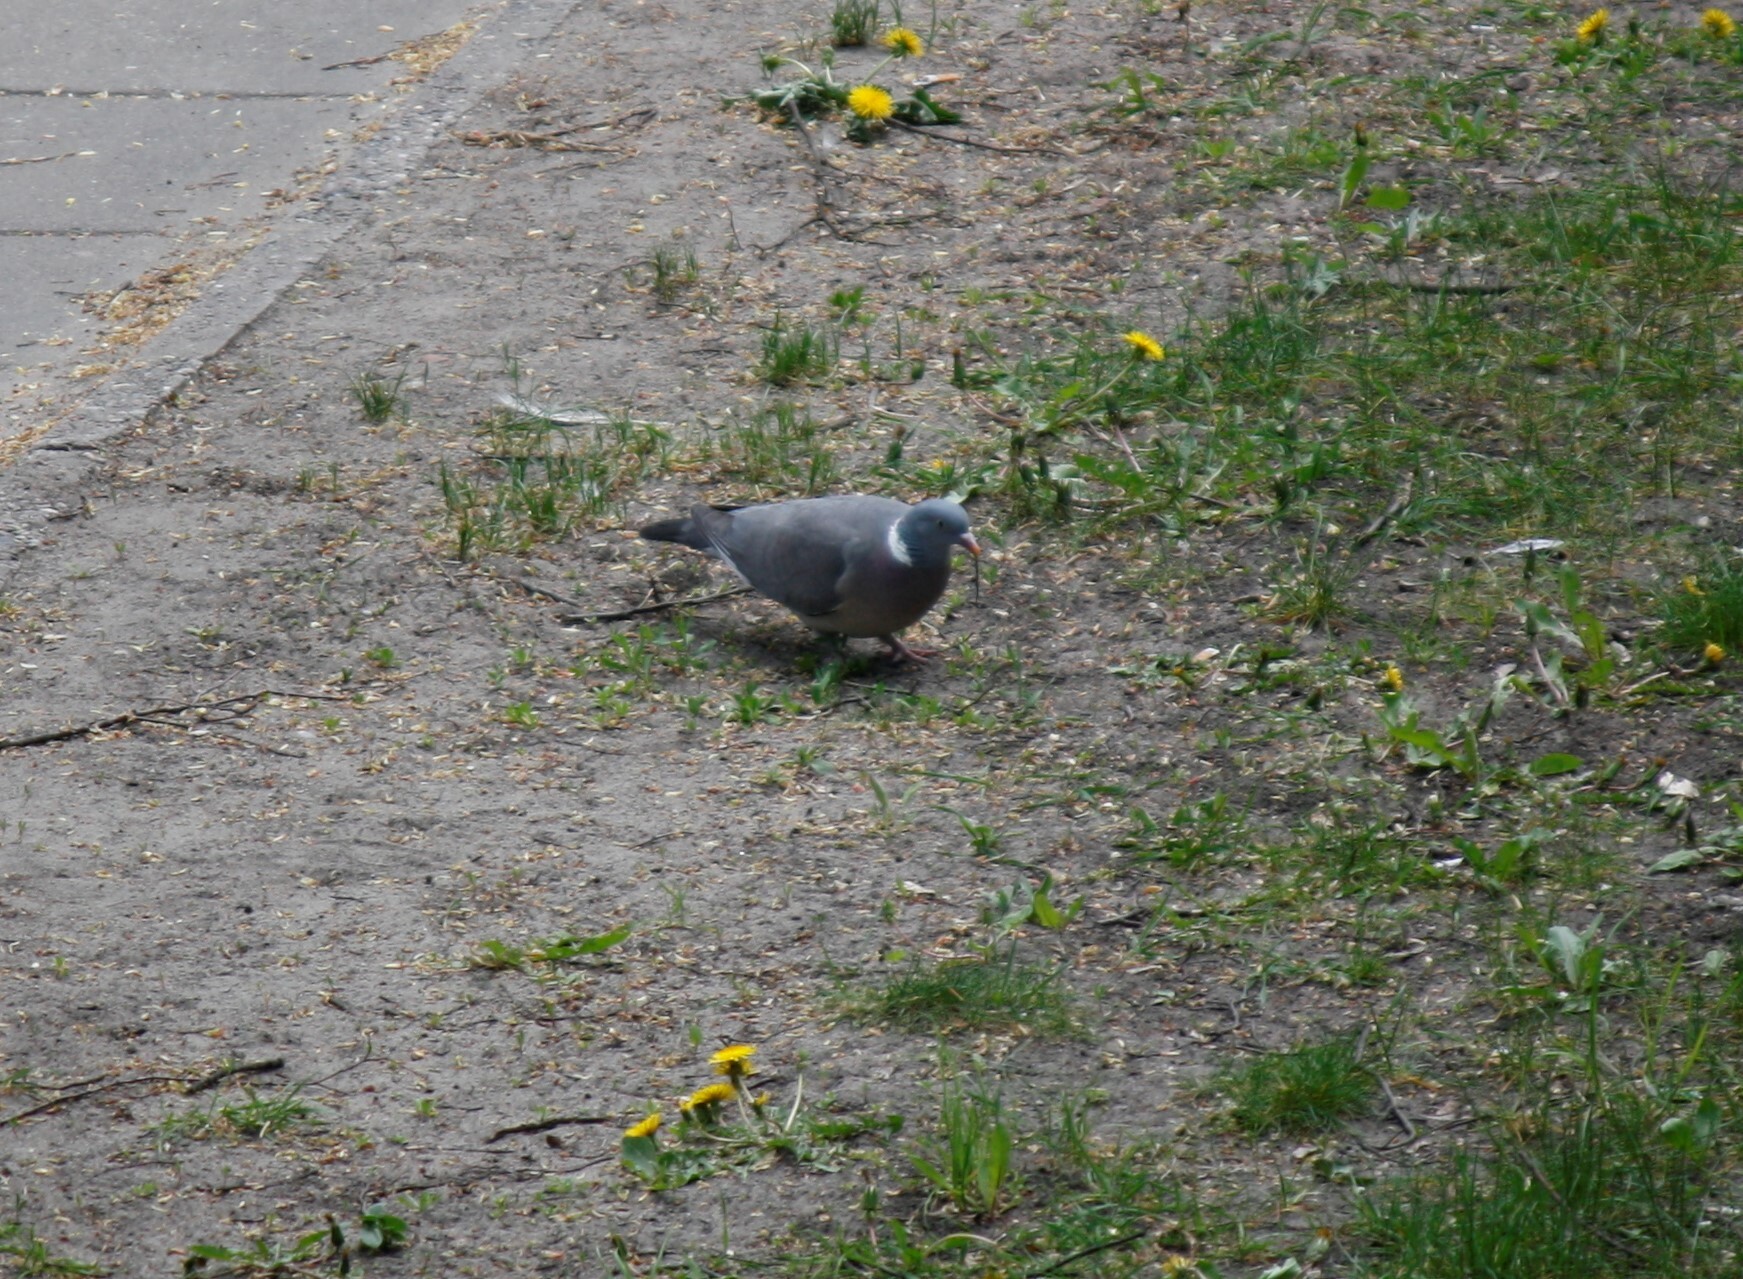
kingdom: Animalia
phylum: Chordata
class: Aves
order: Columbiformes
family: Columbidae
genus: Columba
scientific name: Columba palumbus
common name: Common wood pigeon
